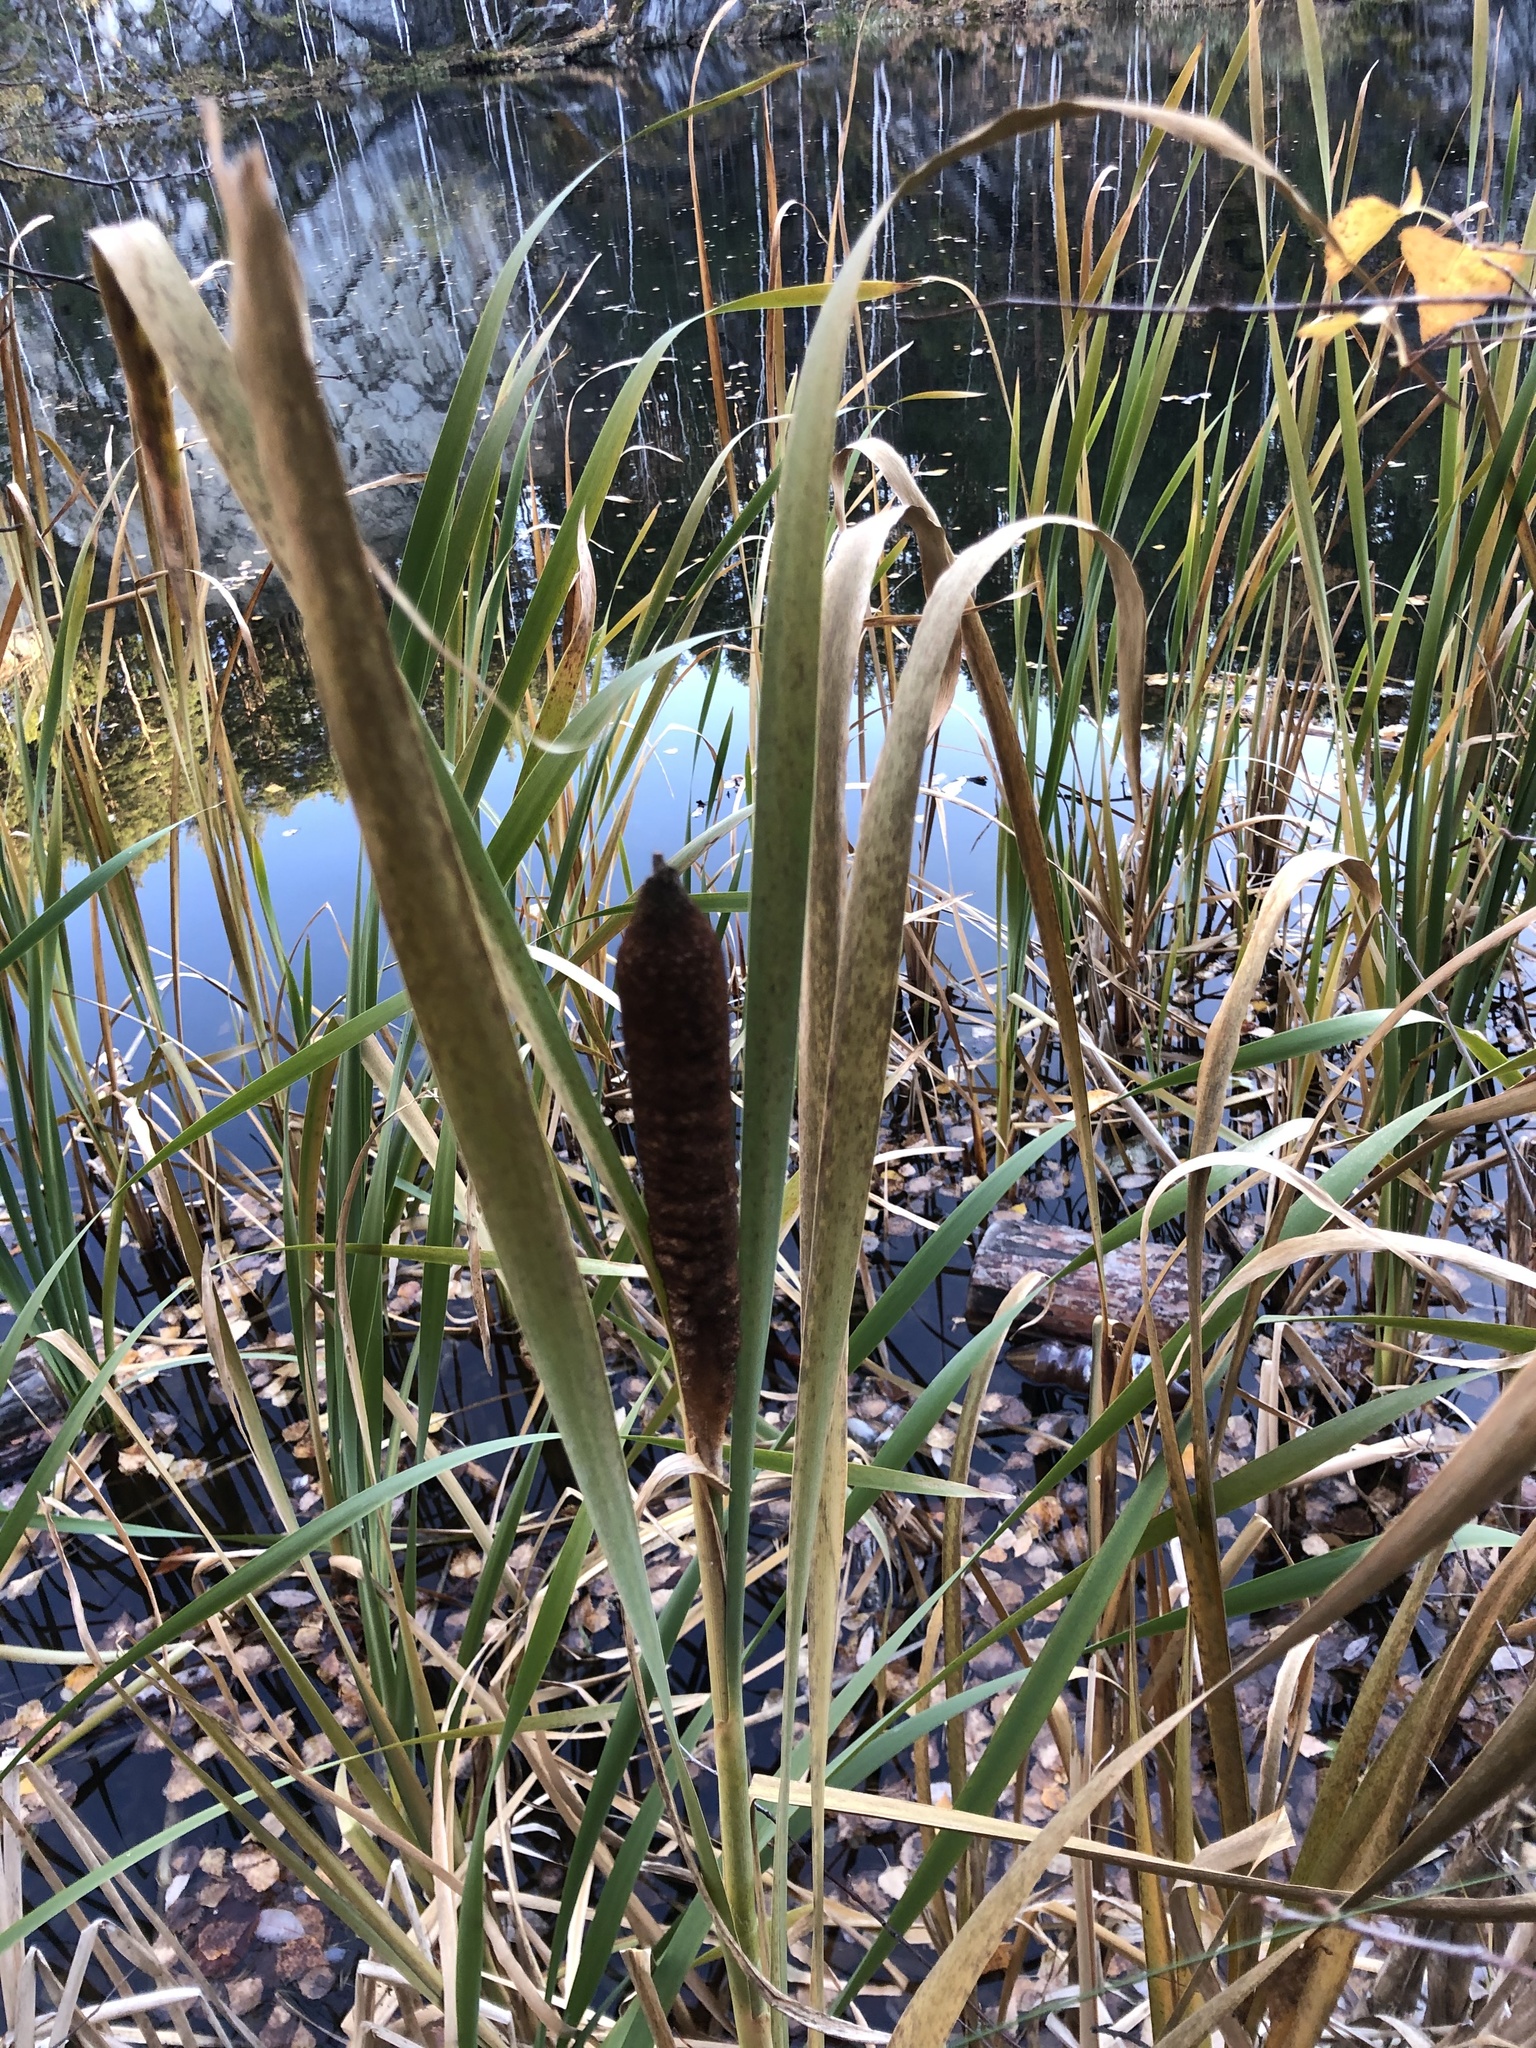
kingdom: Plantae
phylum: Tracheophyta
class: Liliopsida
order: Poales
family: Typhaceae
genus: Typha
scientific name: Typha latifolia
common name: Broadleaf cattail
